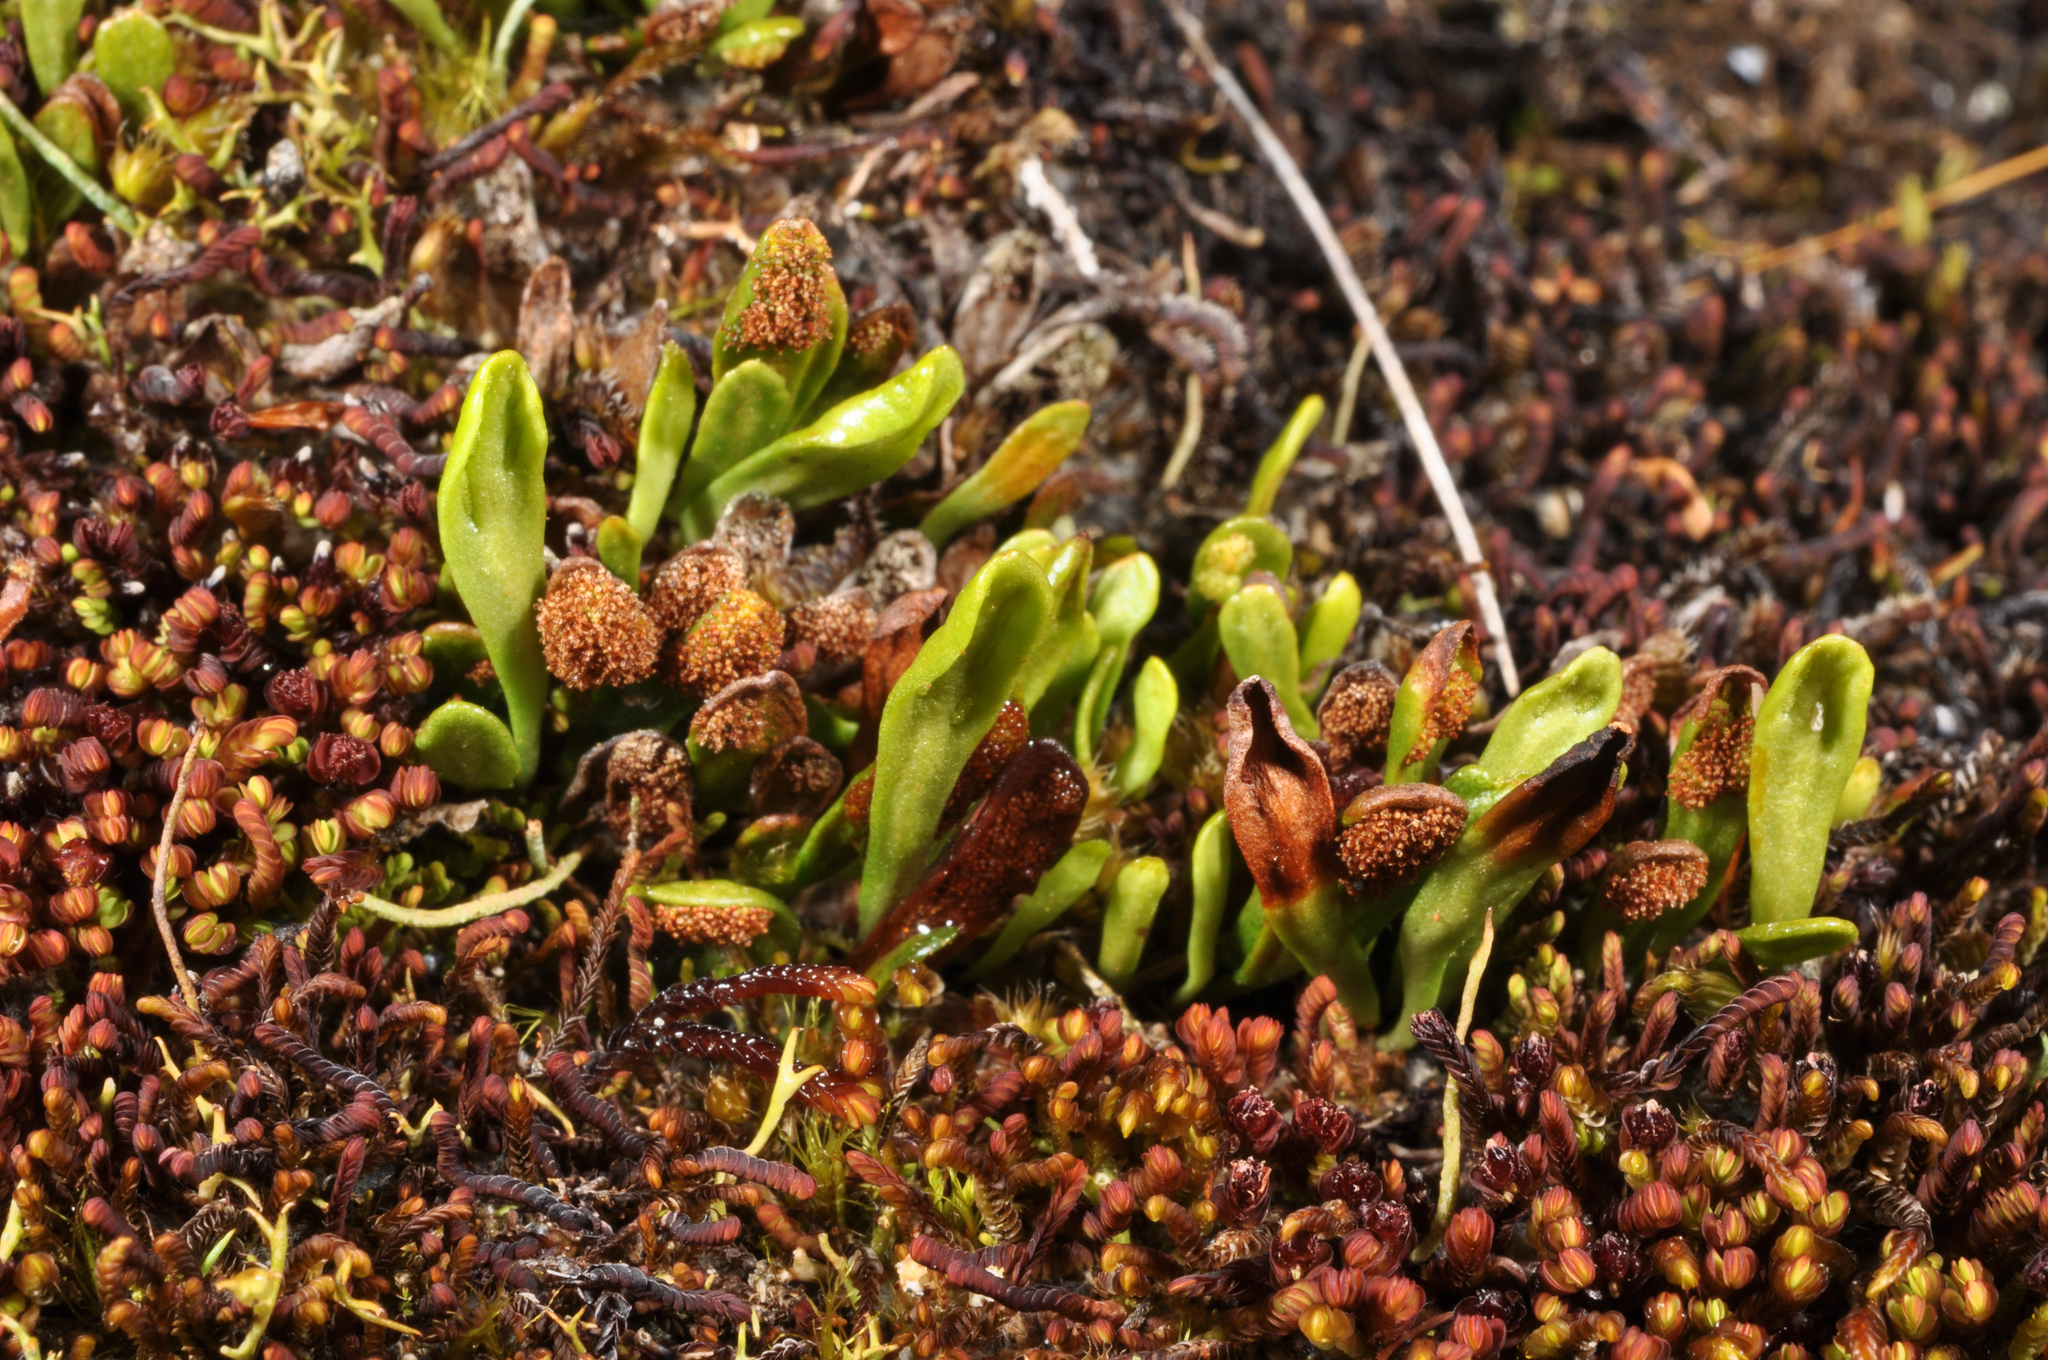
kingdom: Plantae
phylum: Tracheophyta
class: Polypodiopsida
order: Polypodiales
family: Polypodiaceae
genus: Notogrammitis
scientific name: Notogrammitis crassior
